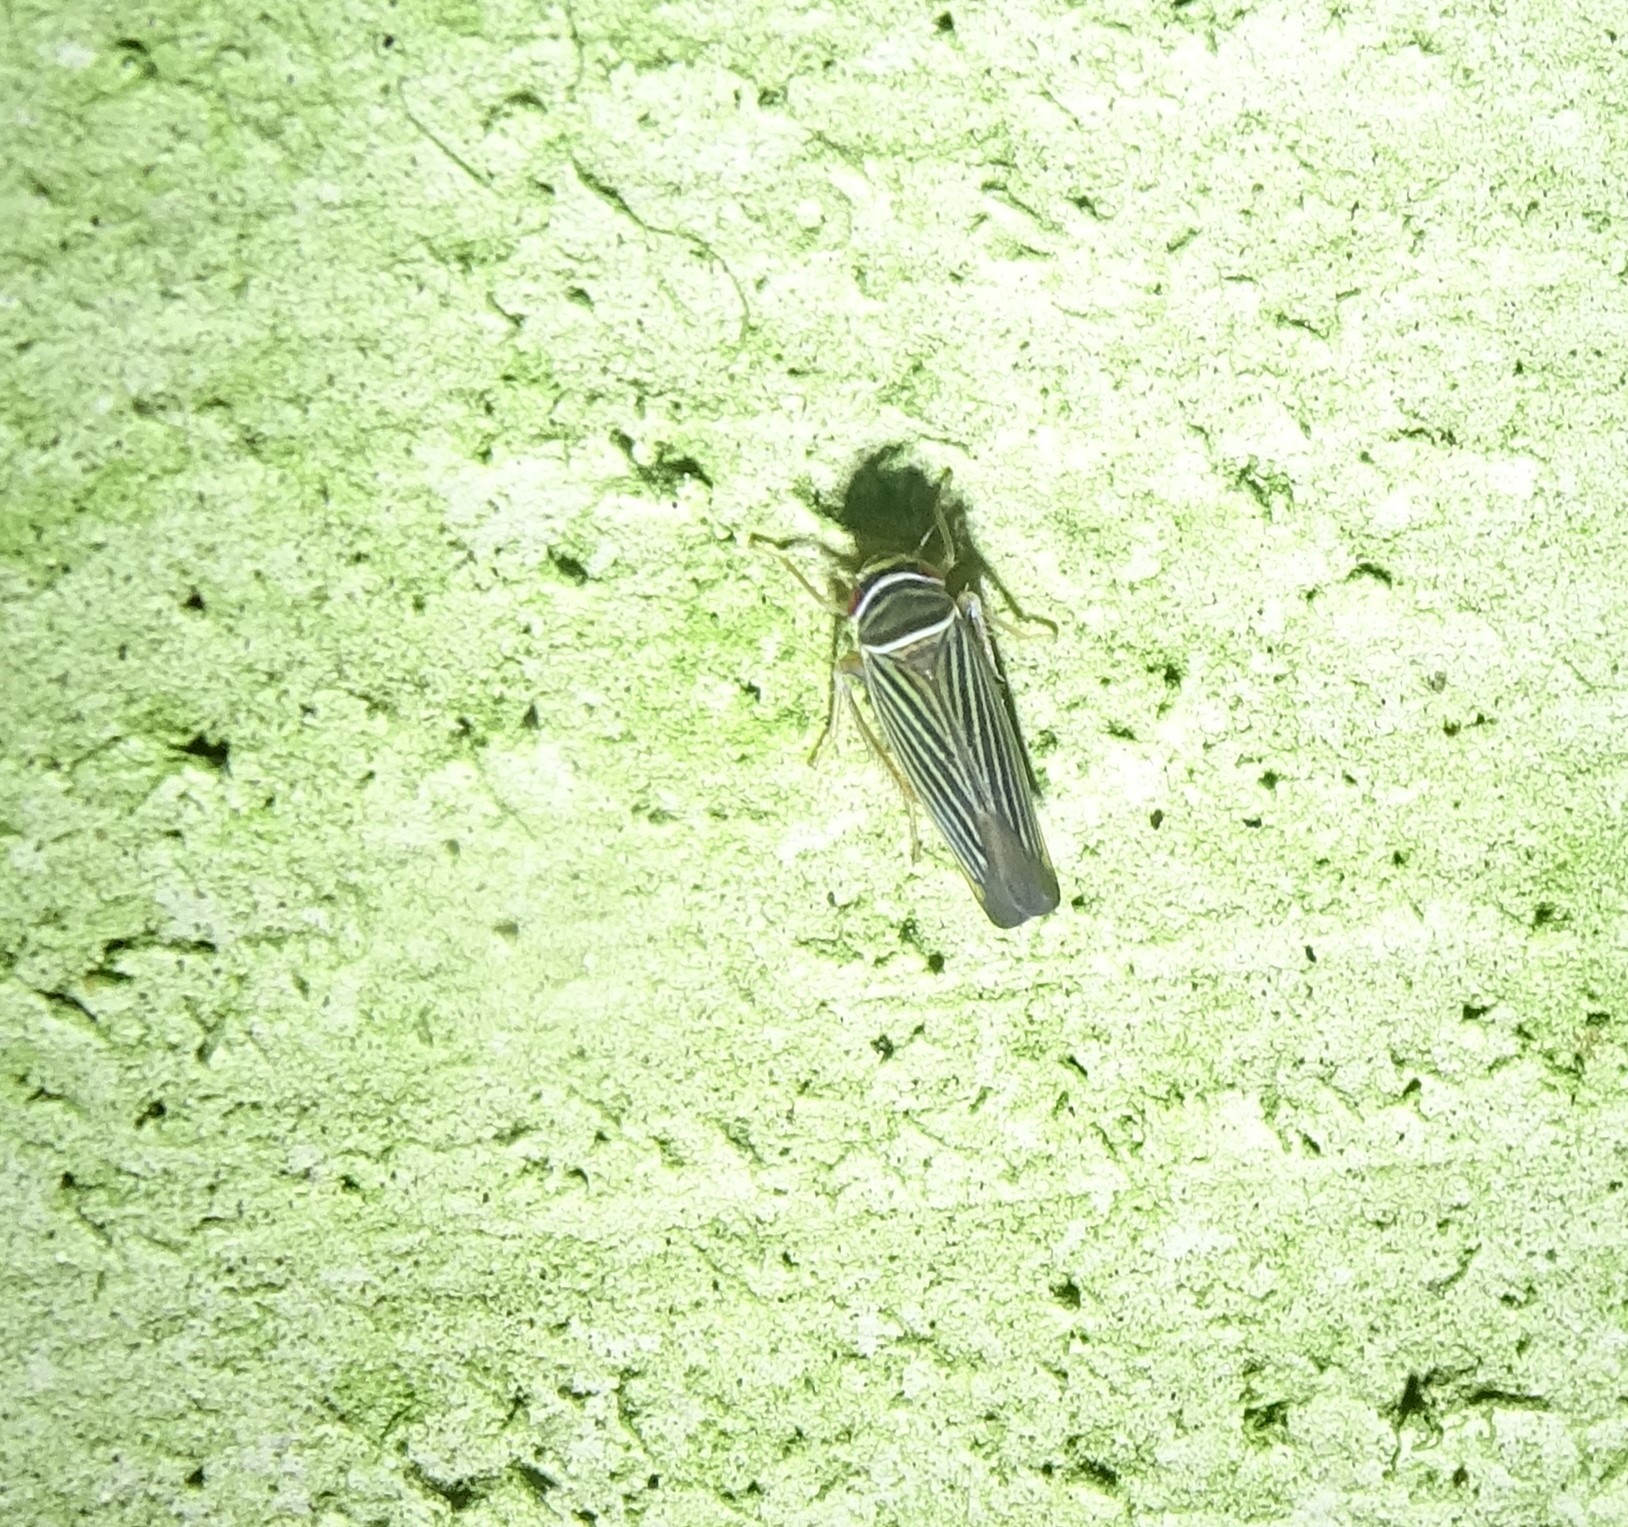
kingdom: Animalia
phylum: Arthropoda
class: Insecta
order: Hemiptera
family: Cicadellidae
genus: Tylozygus
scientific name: Tylozygus bifidus
